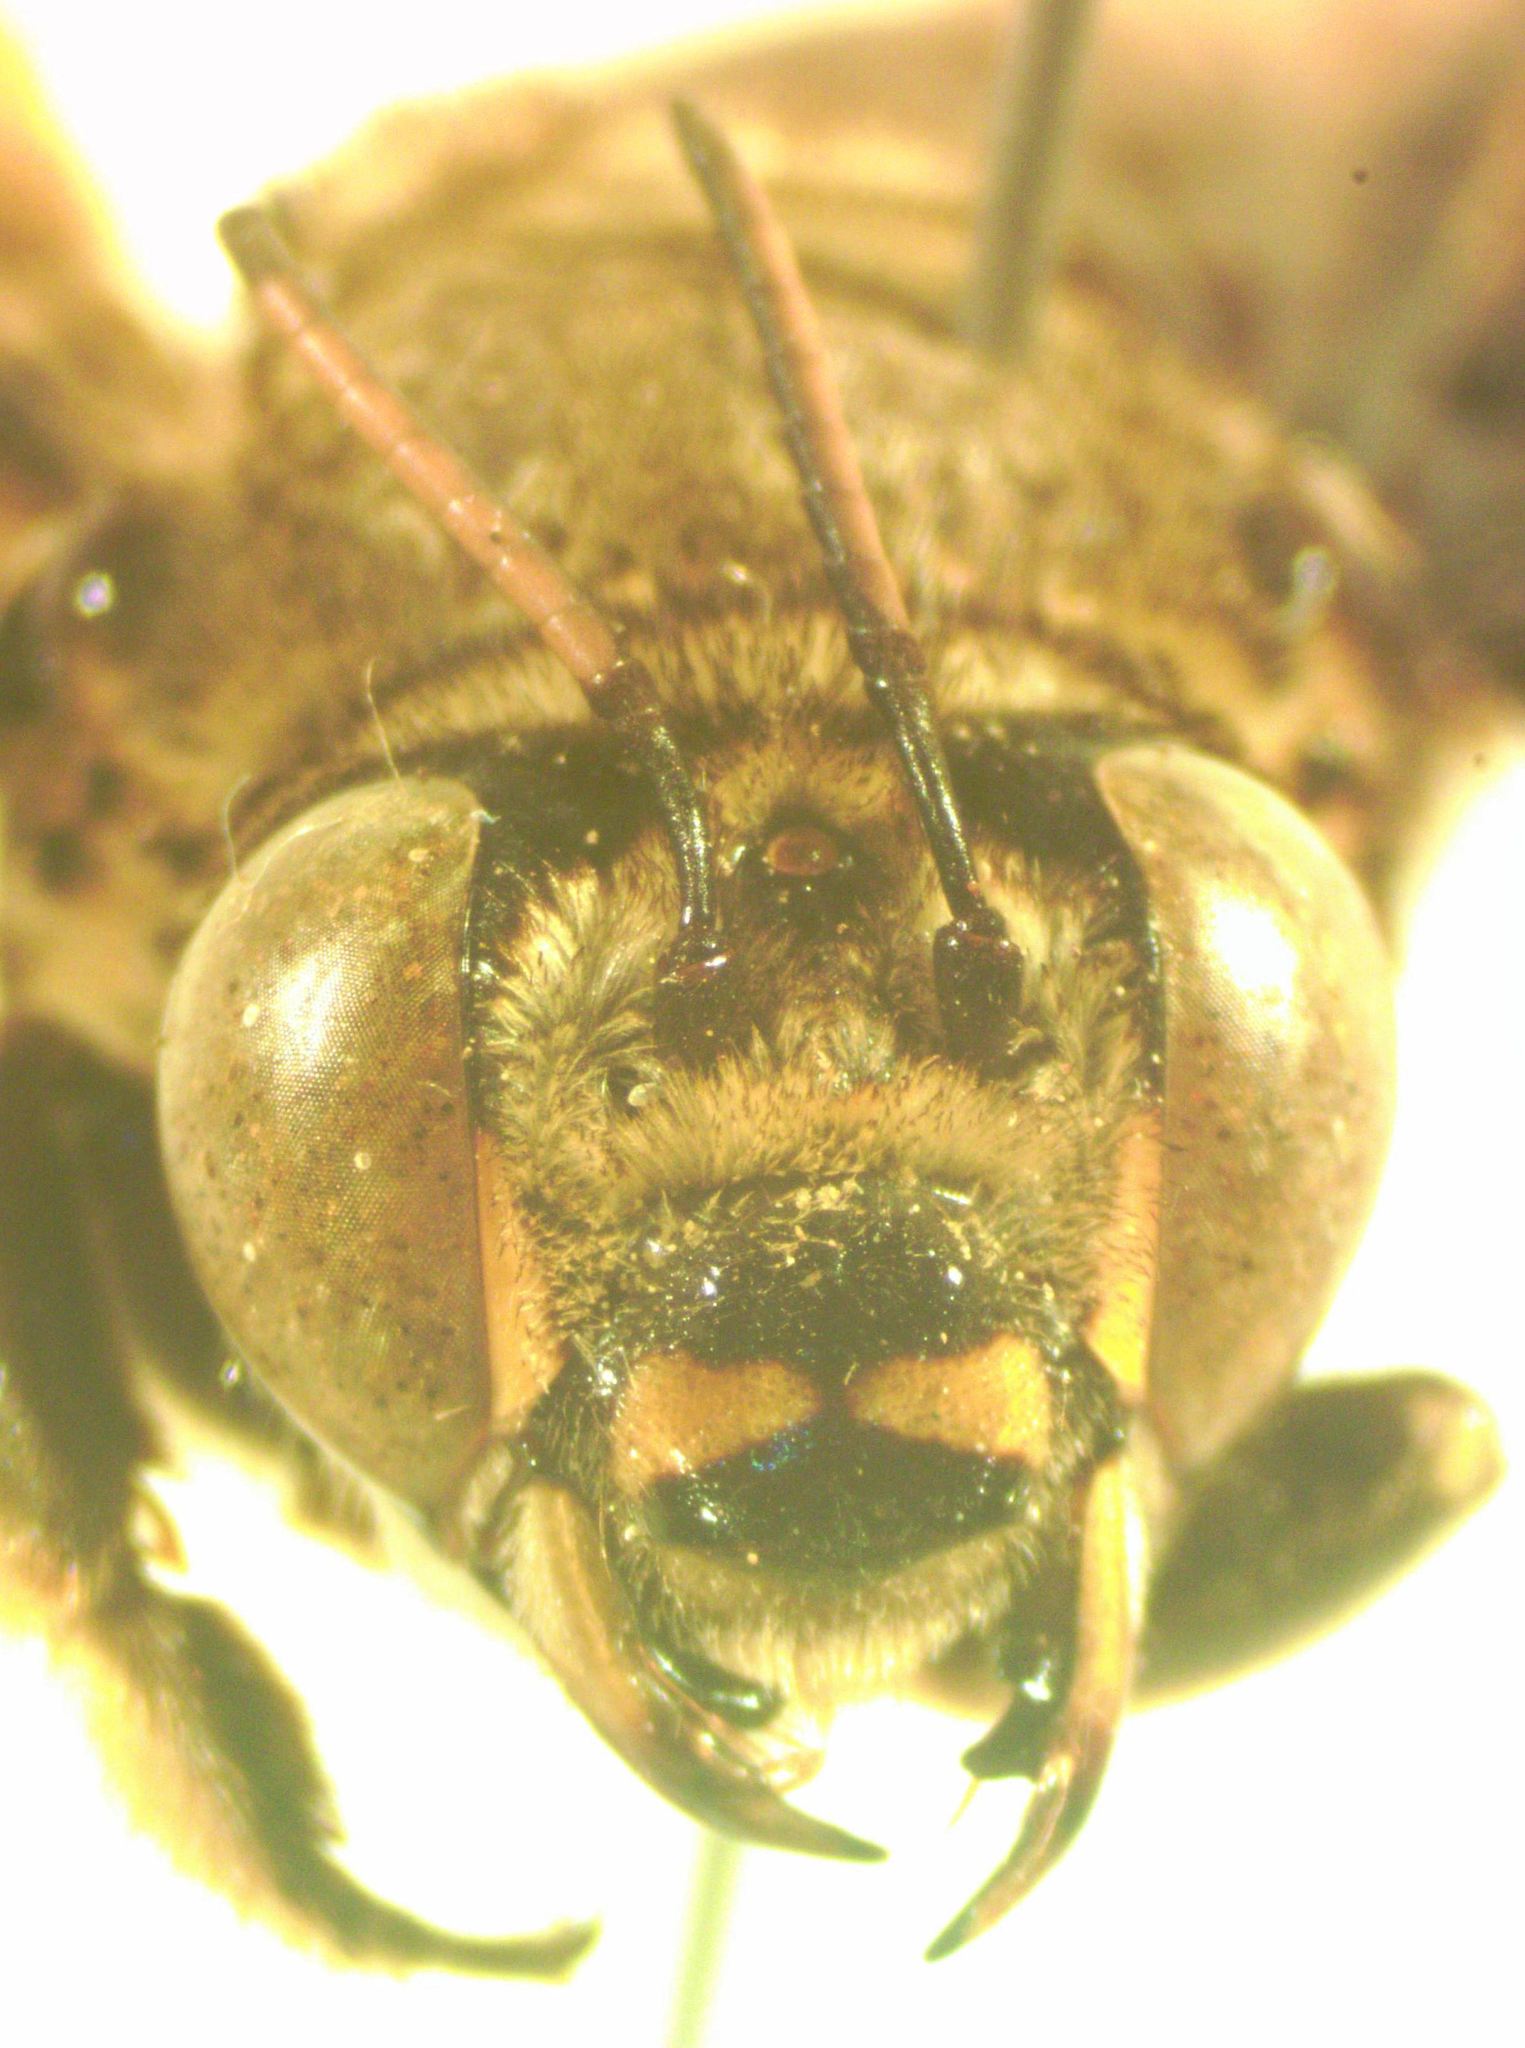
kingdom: Animalia
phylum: Arthropoda
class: Insecta
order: Hymenoptera
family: Apidae
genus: Centris
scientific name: Centris vittata
